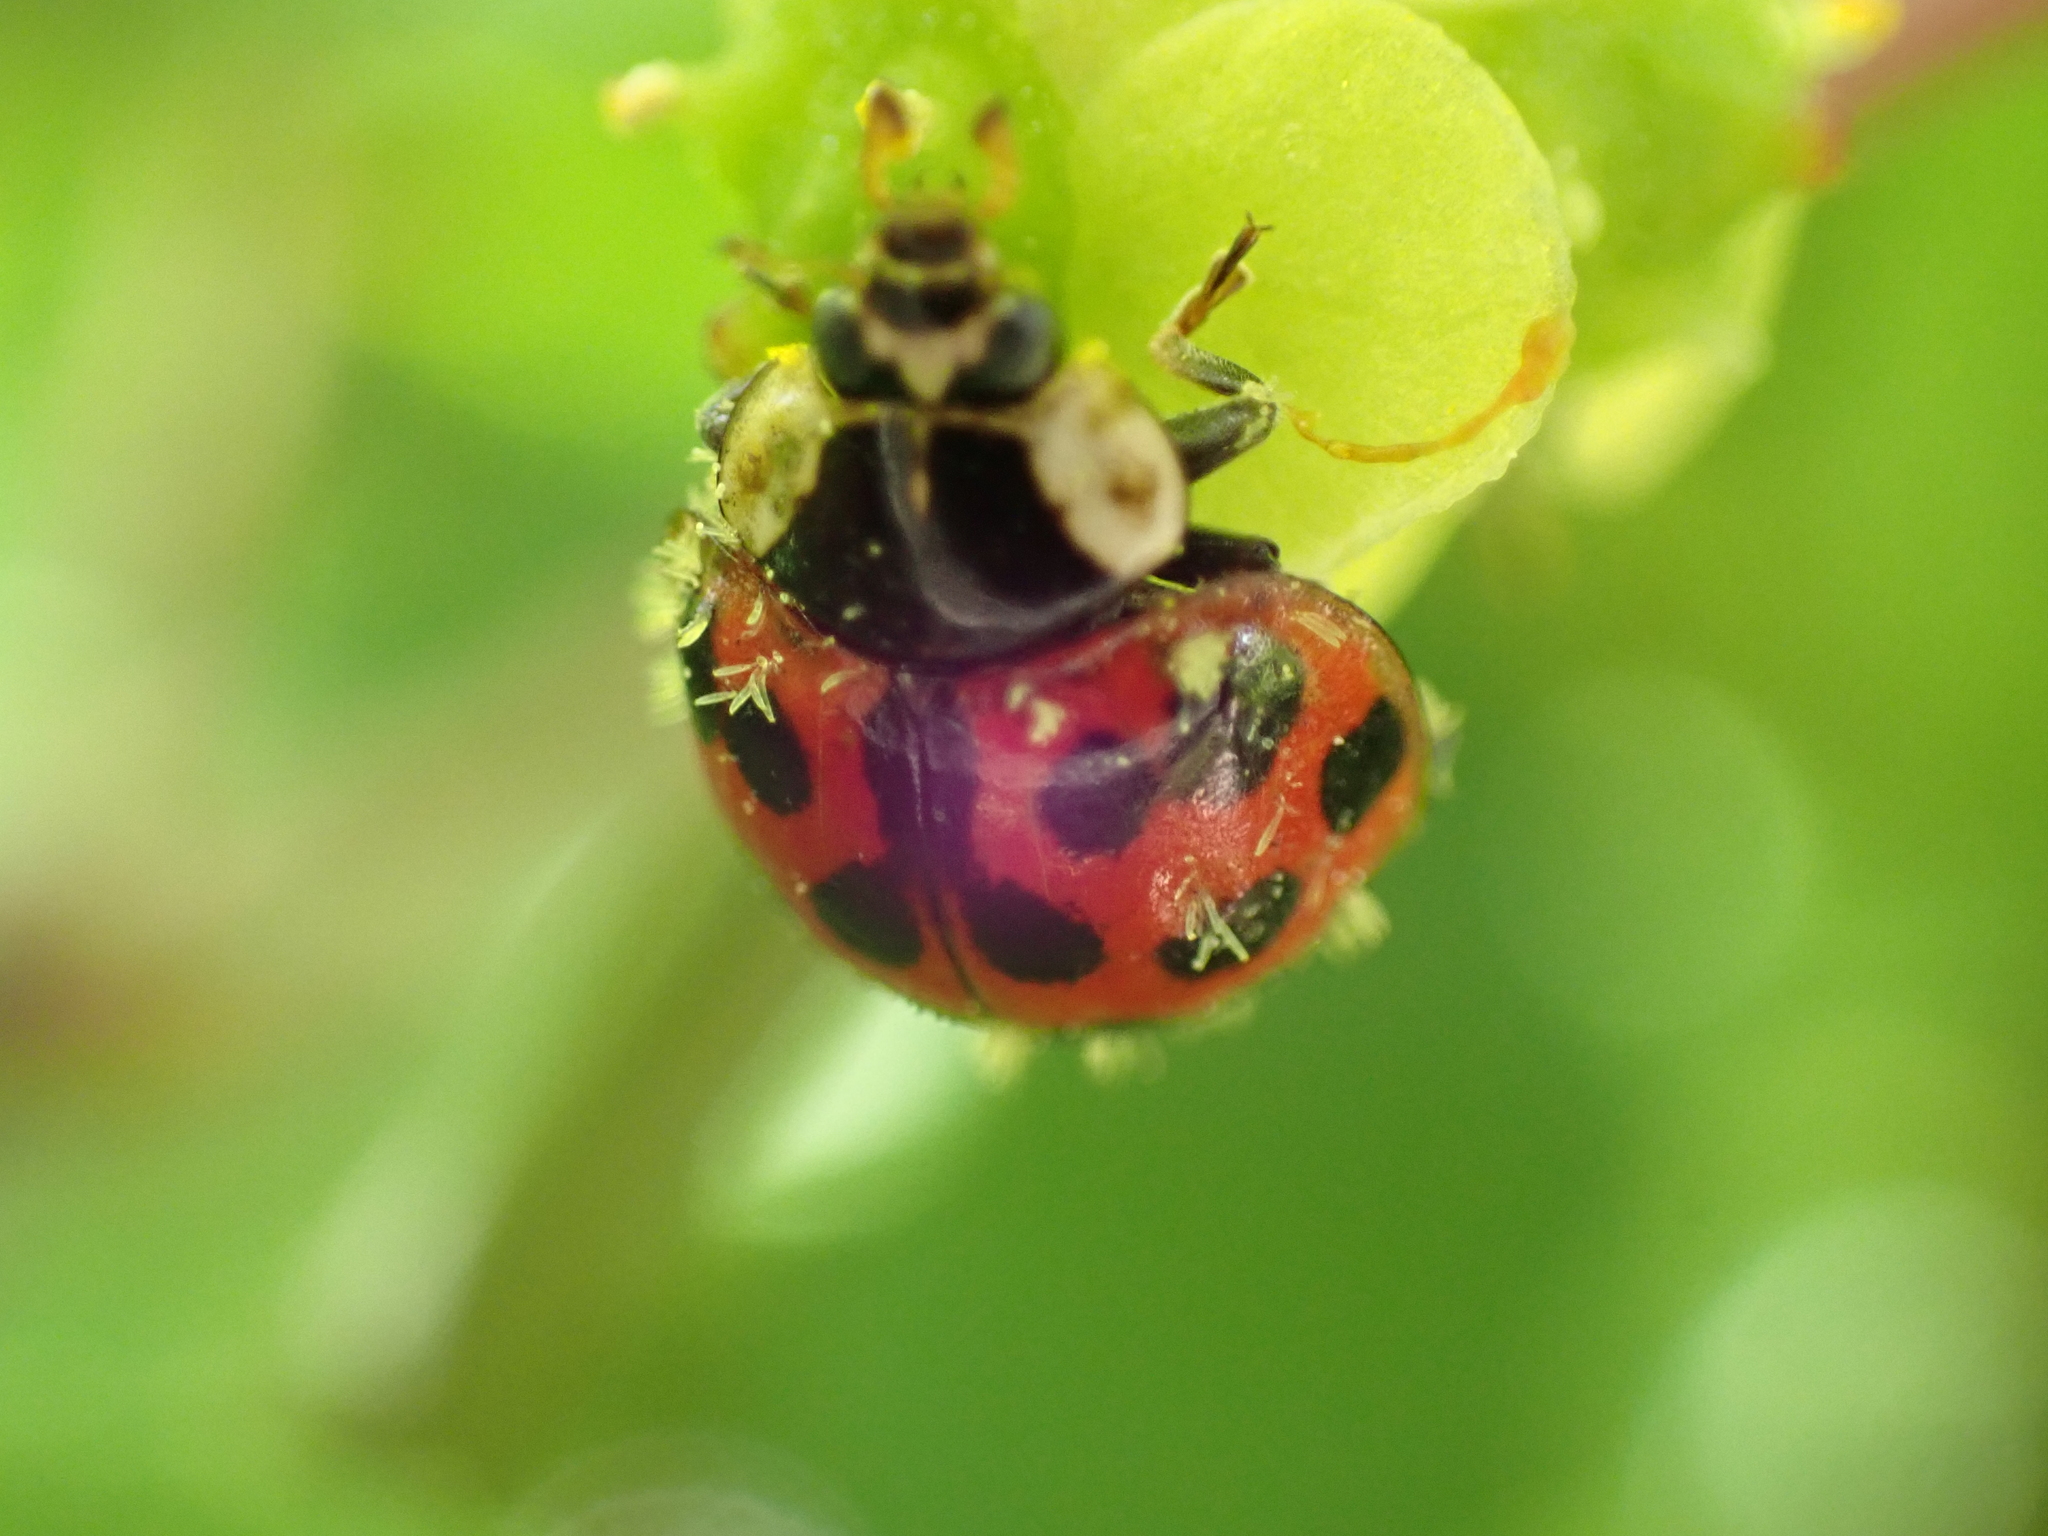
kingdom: Fungi
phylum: Ascomycota
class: Laboulbeniomycetes
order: Laboulbeniales
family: Laboulbeniaceae
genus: Hesperomyces
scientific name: Hesperomyces harmoniae
